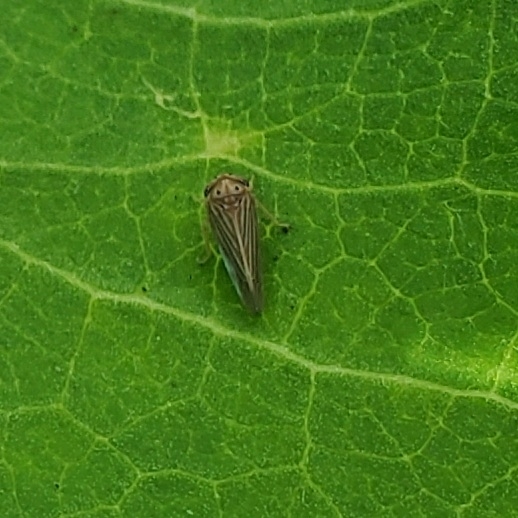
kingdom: Animalia
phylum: Arthropoda
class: Insecta
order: Hemiptera
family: Cicadellidae
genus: Agallia
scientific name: Agallia constricta
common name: The constricted leafhopper
